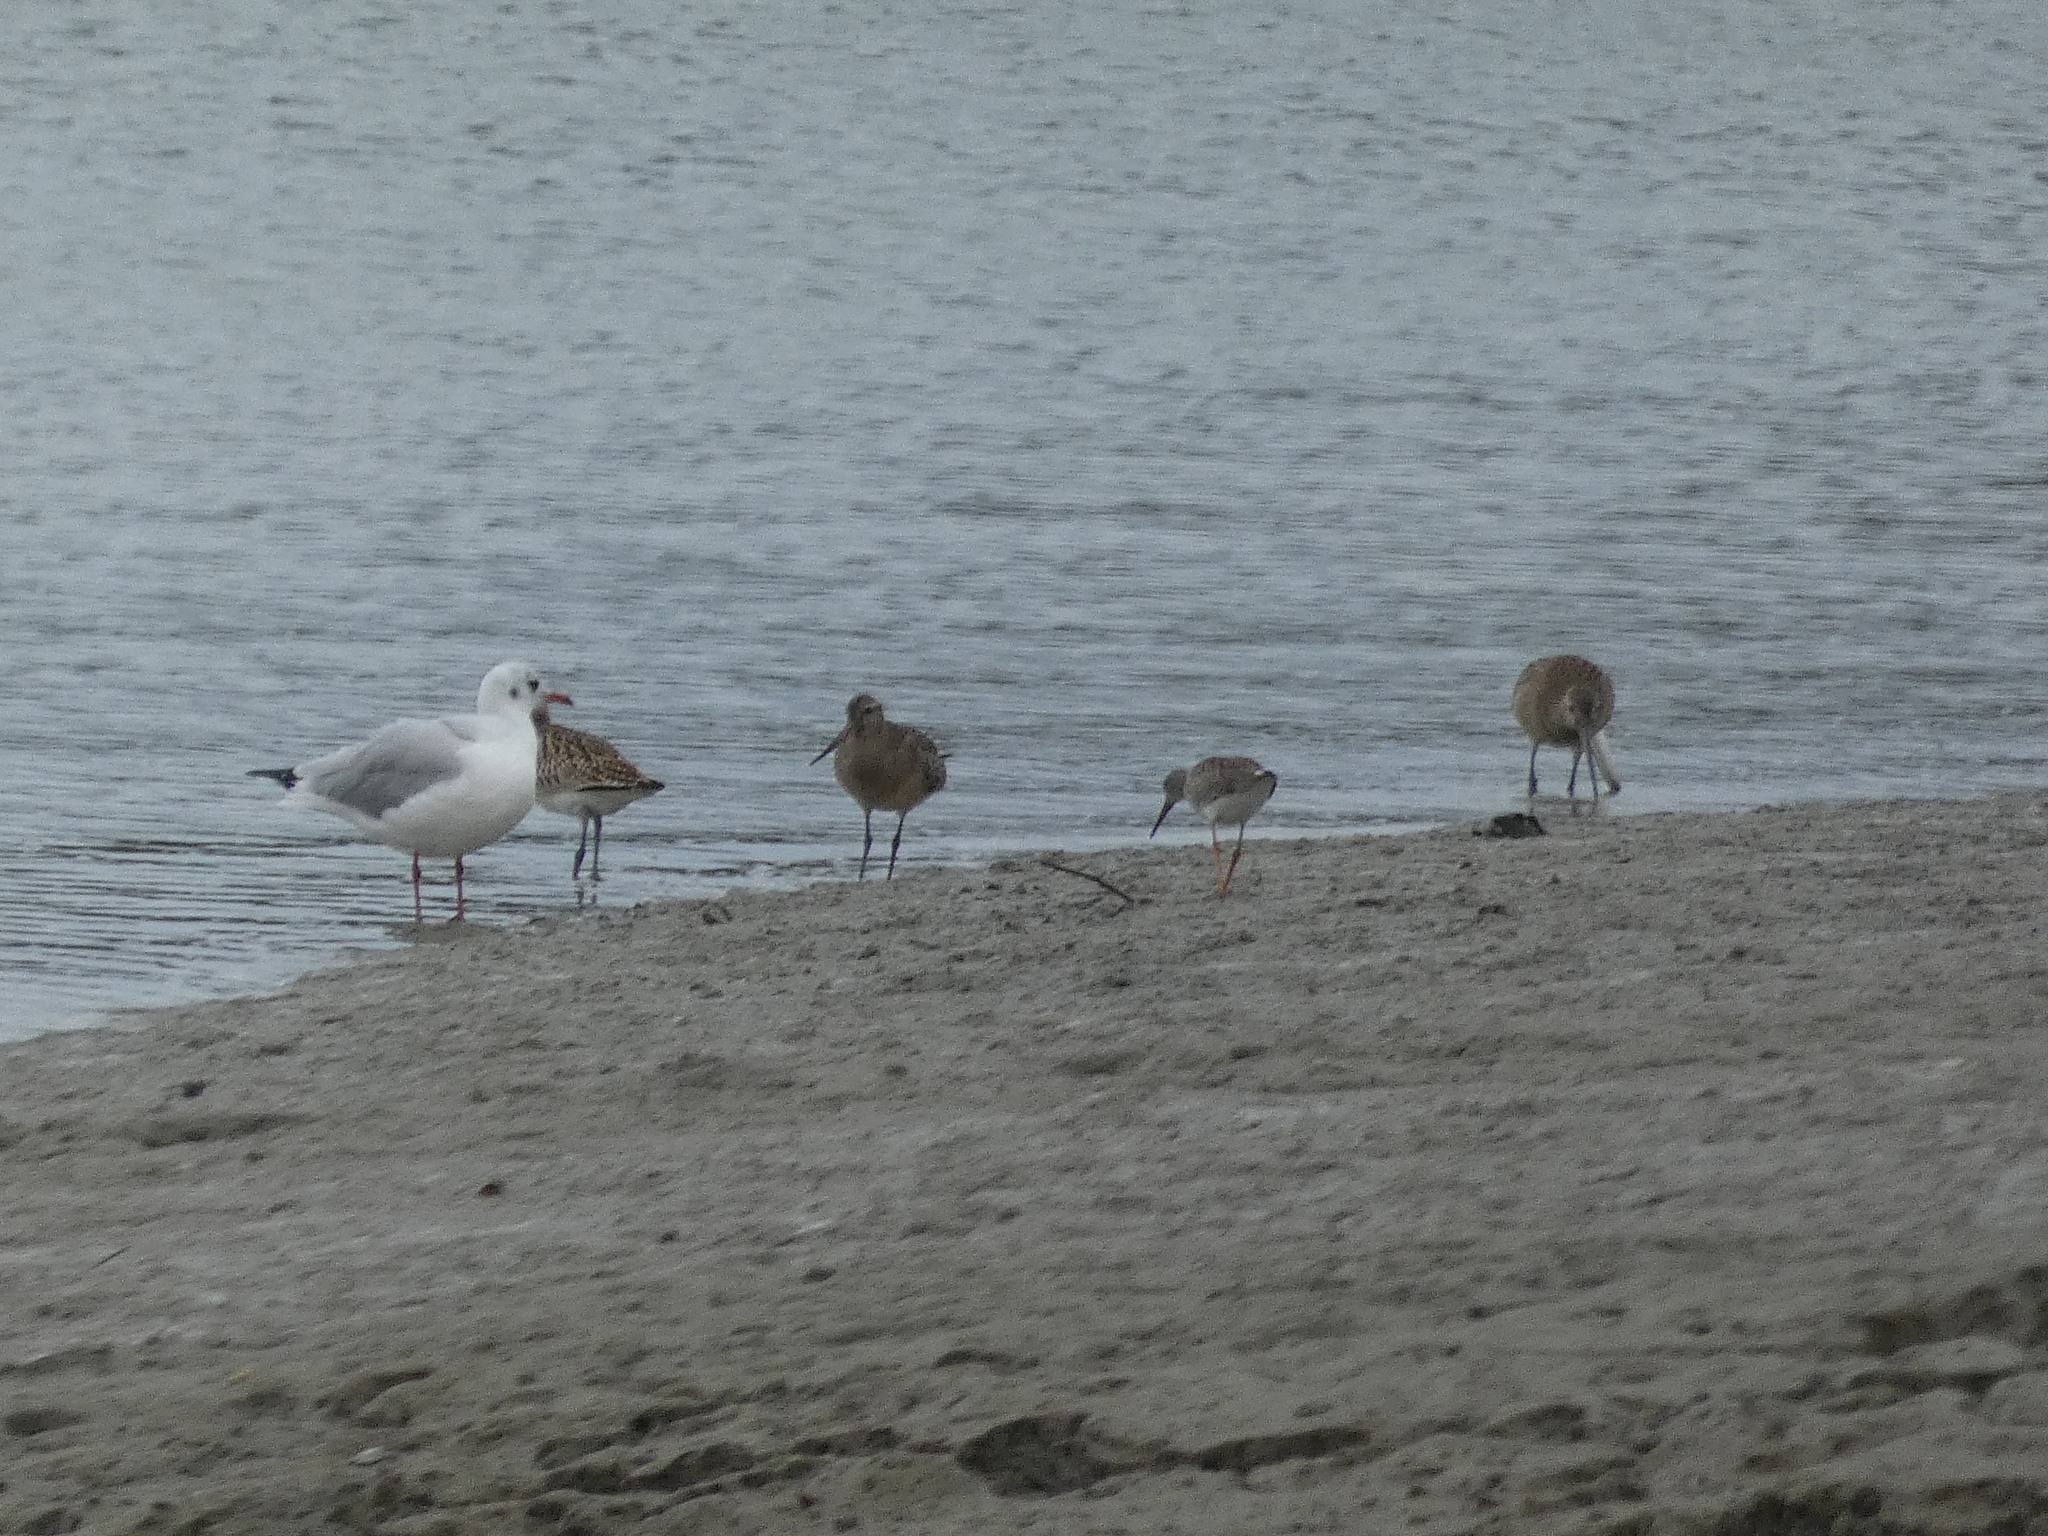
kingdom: Animalia
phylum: Chordata
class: Aves
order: Charadriiformes
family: Laridae
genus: Chroicocephalus
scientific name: Chroicocephalus ridibundus
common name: Black-headed gull
